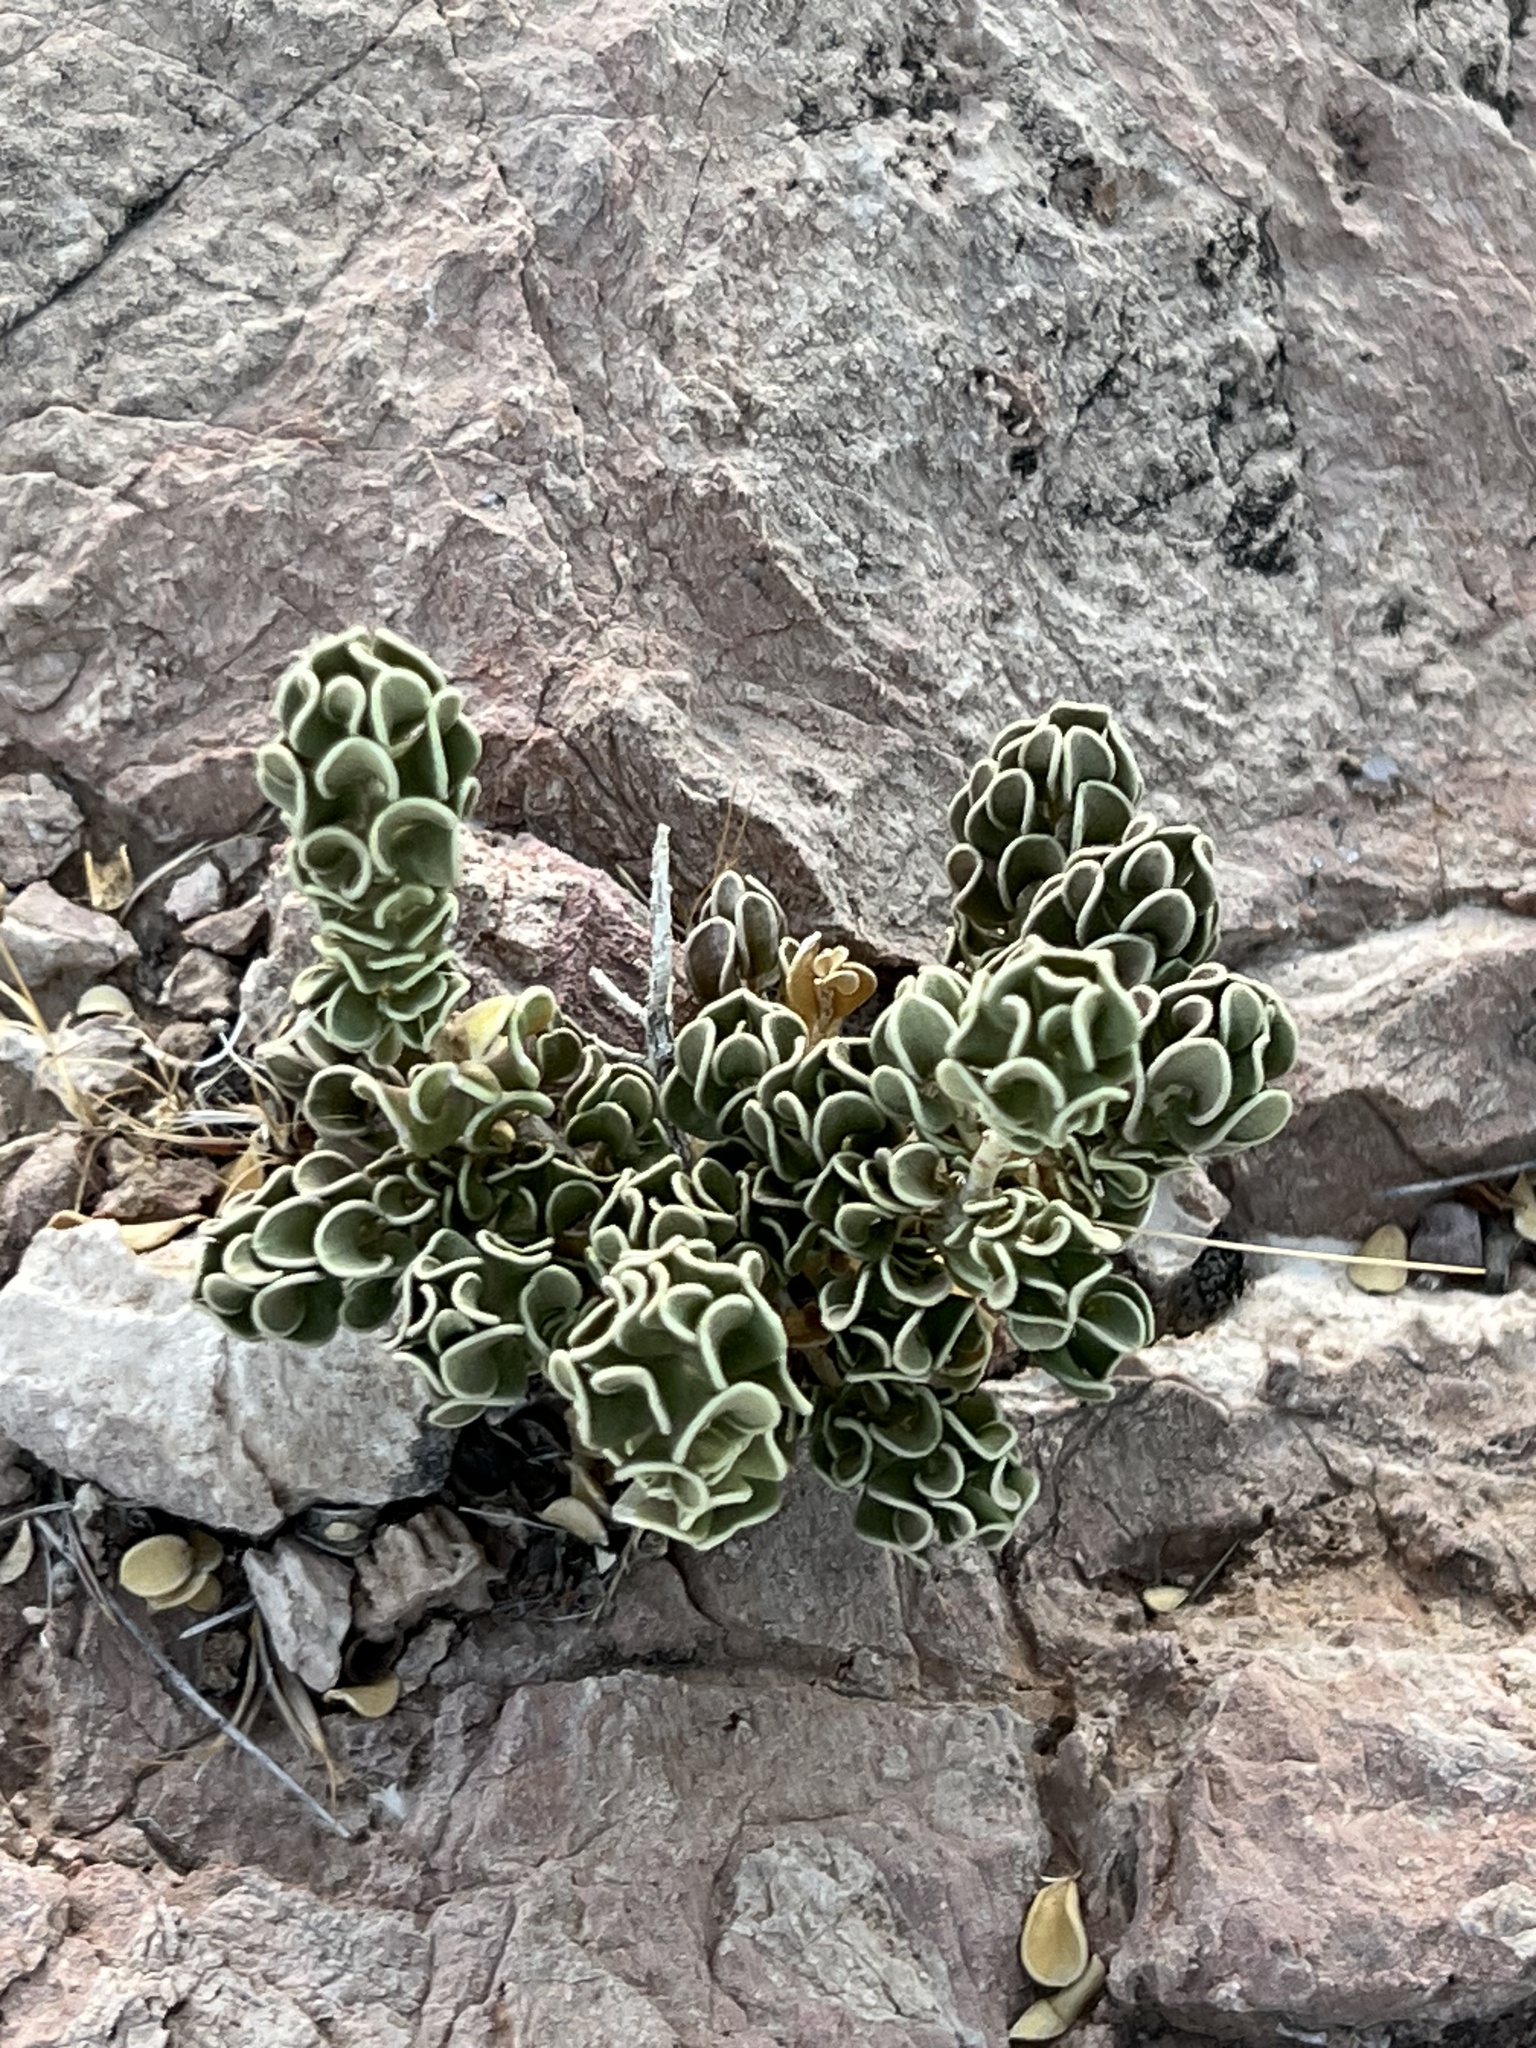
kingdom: Plantae
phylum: Tracheophyta
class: Magnoliopsida
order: Celastrales
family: Celastraceae
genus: Mortonia
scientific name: Mortonia utahensis
